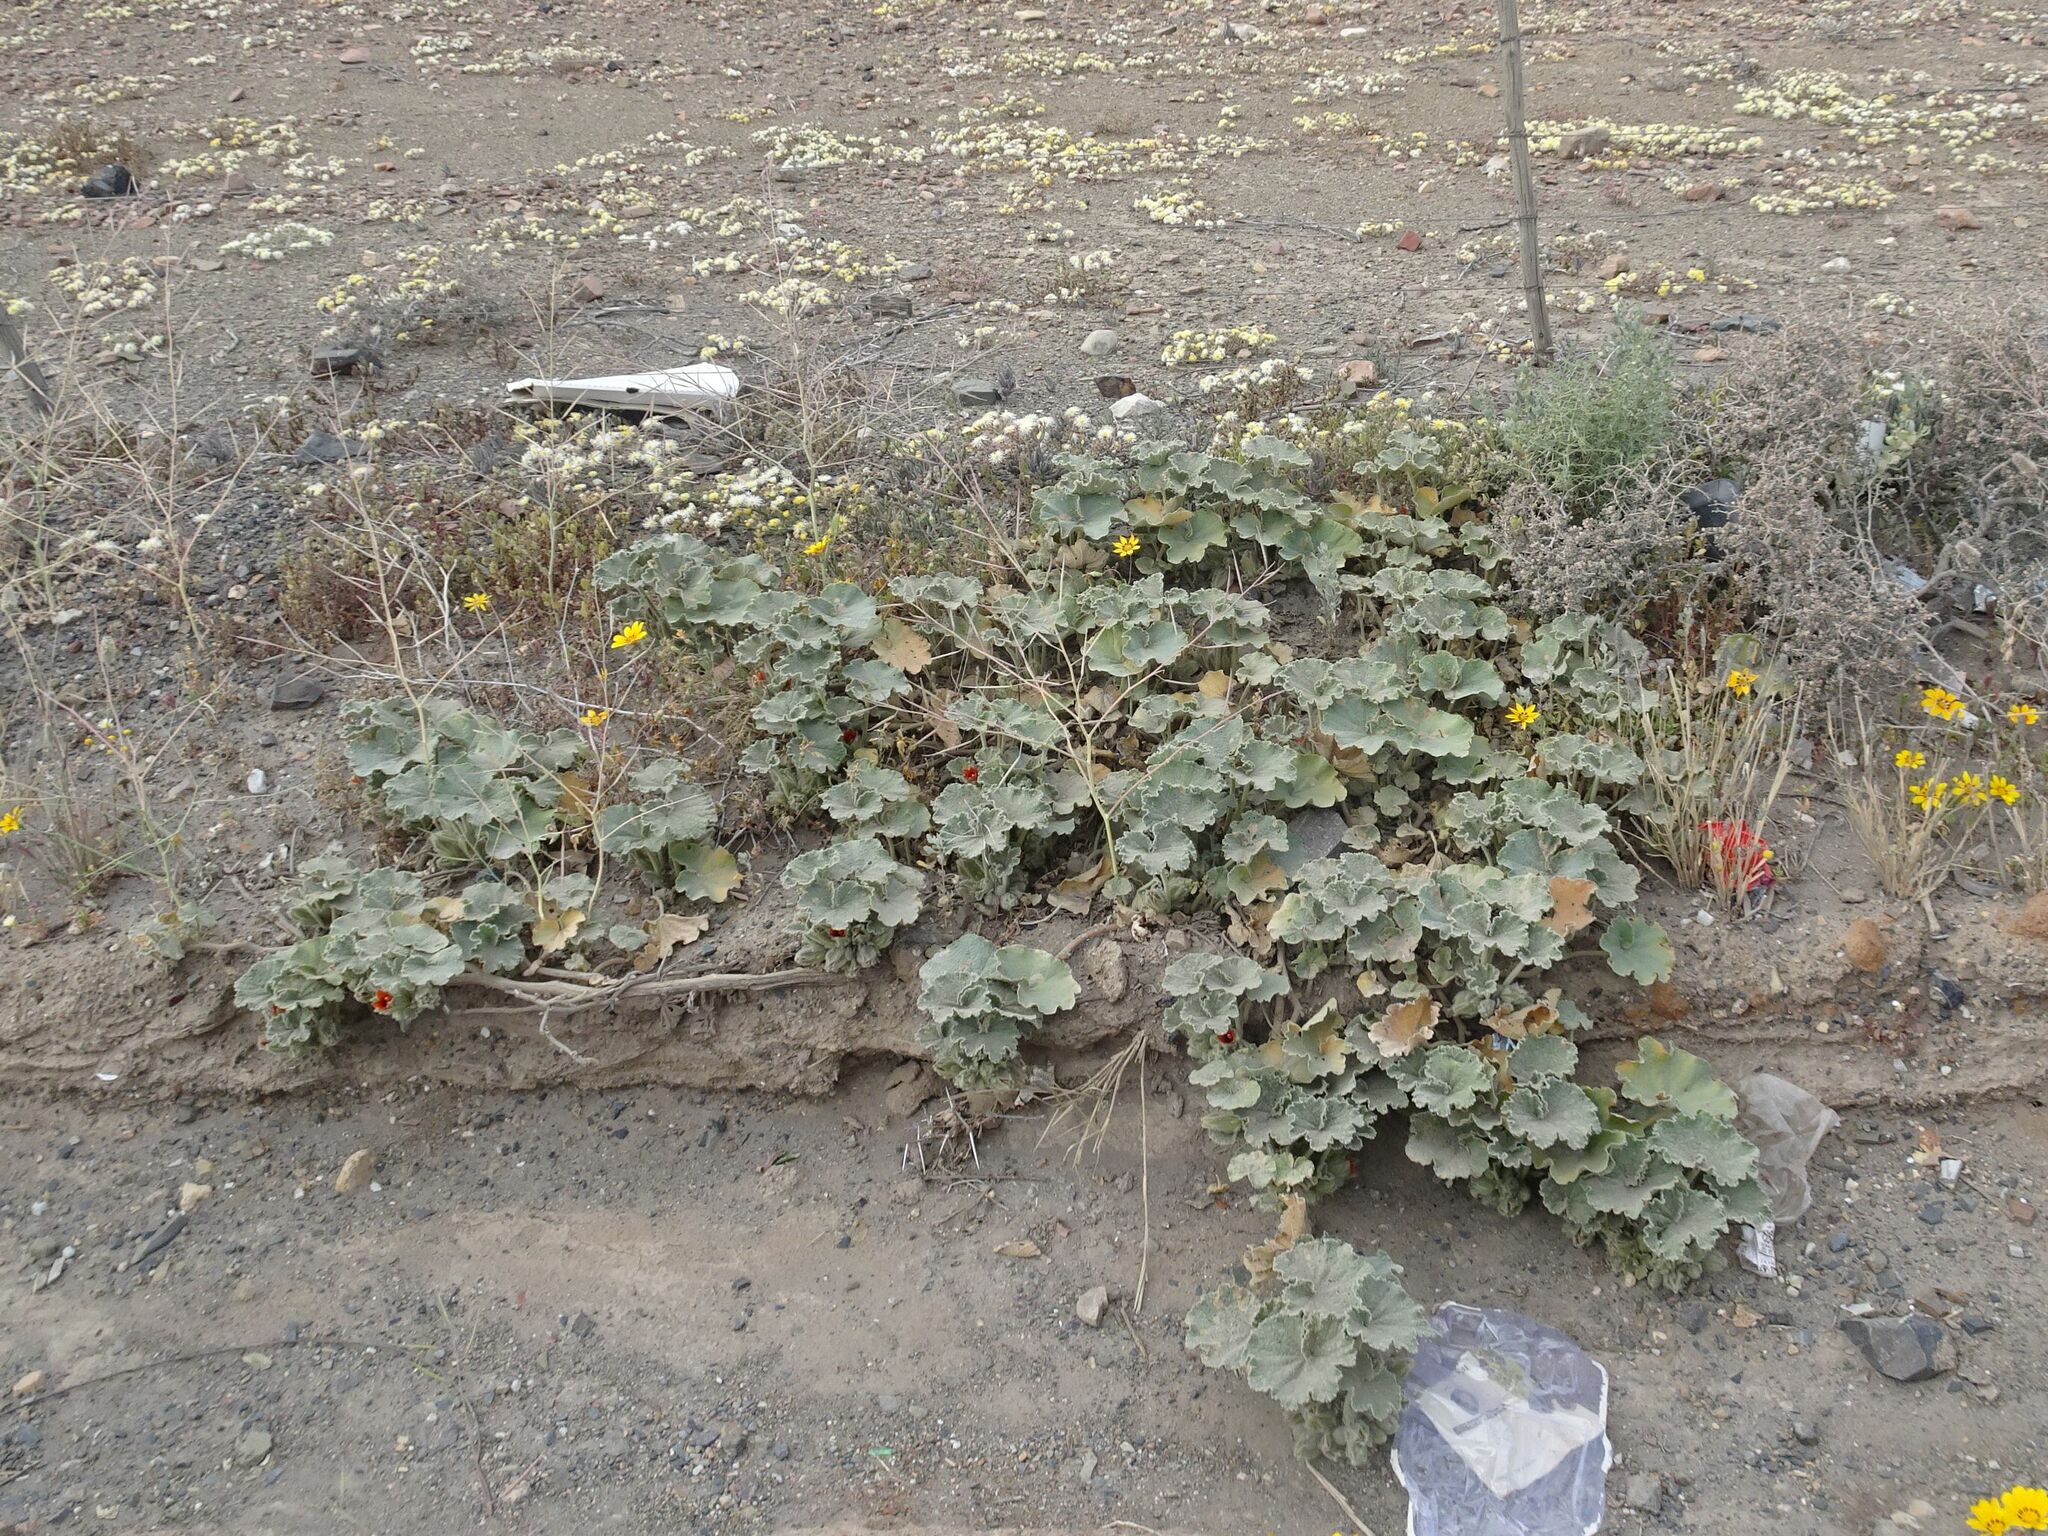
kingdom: Plantae
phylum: Tracheophyta
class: Magnoliopsida
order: Malvales
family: Malvaceae
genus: Radyera
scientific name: Radyera urens
